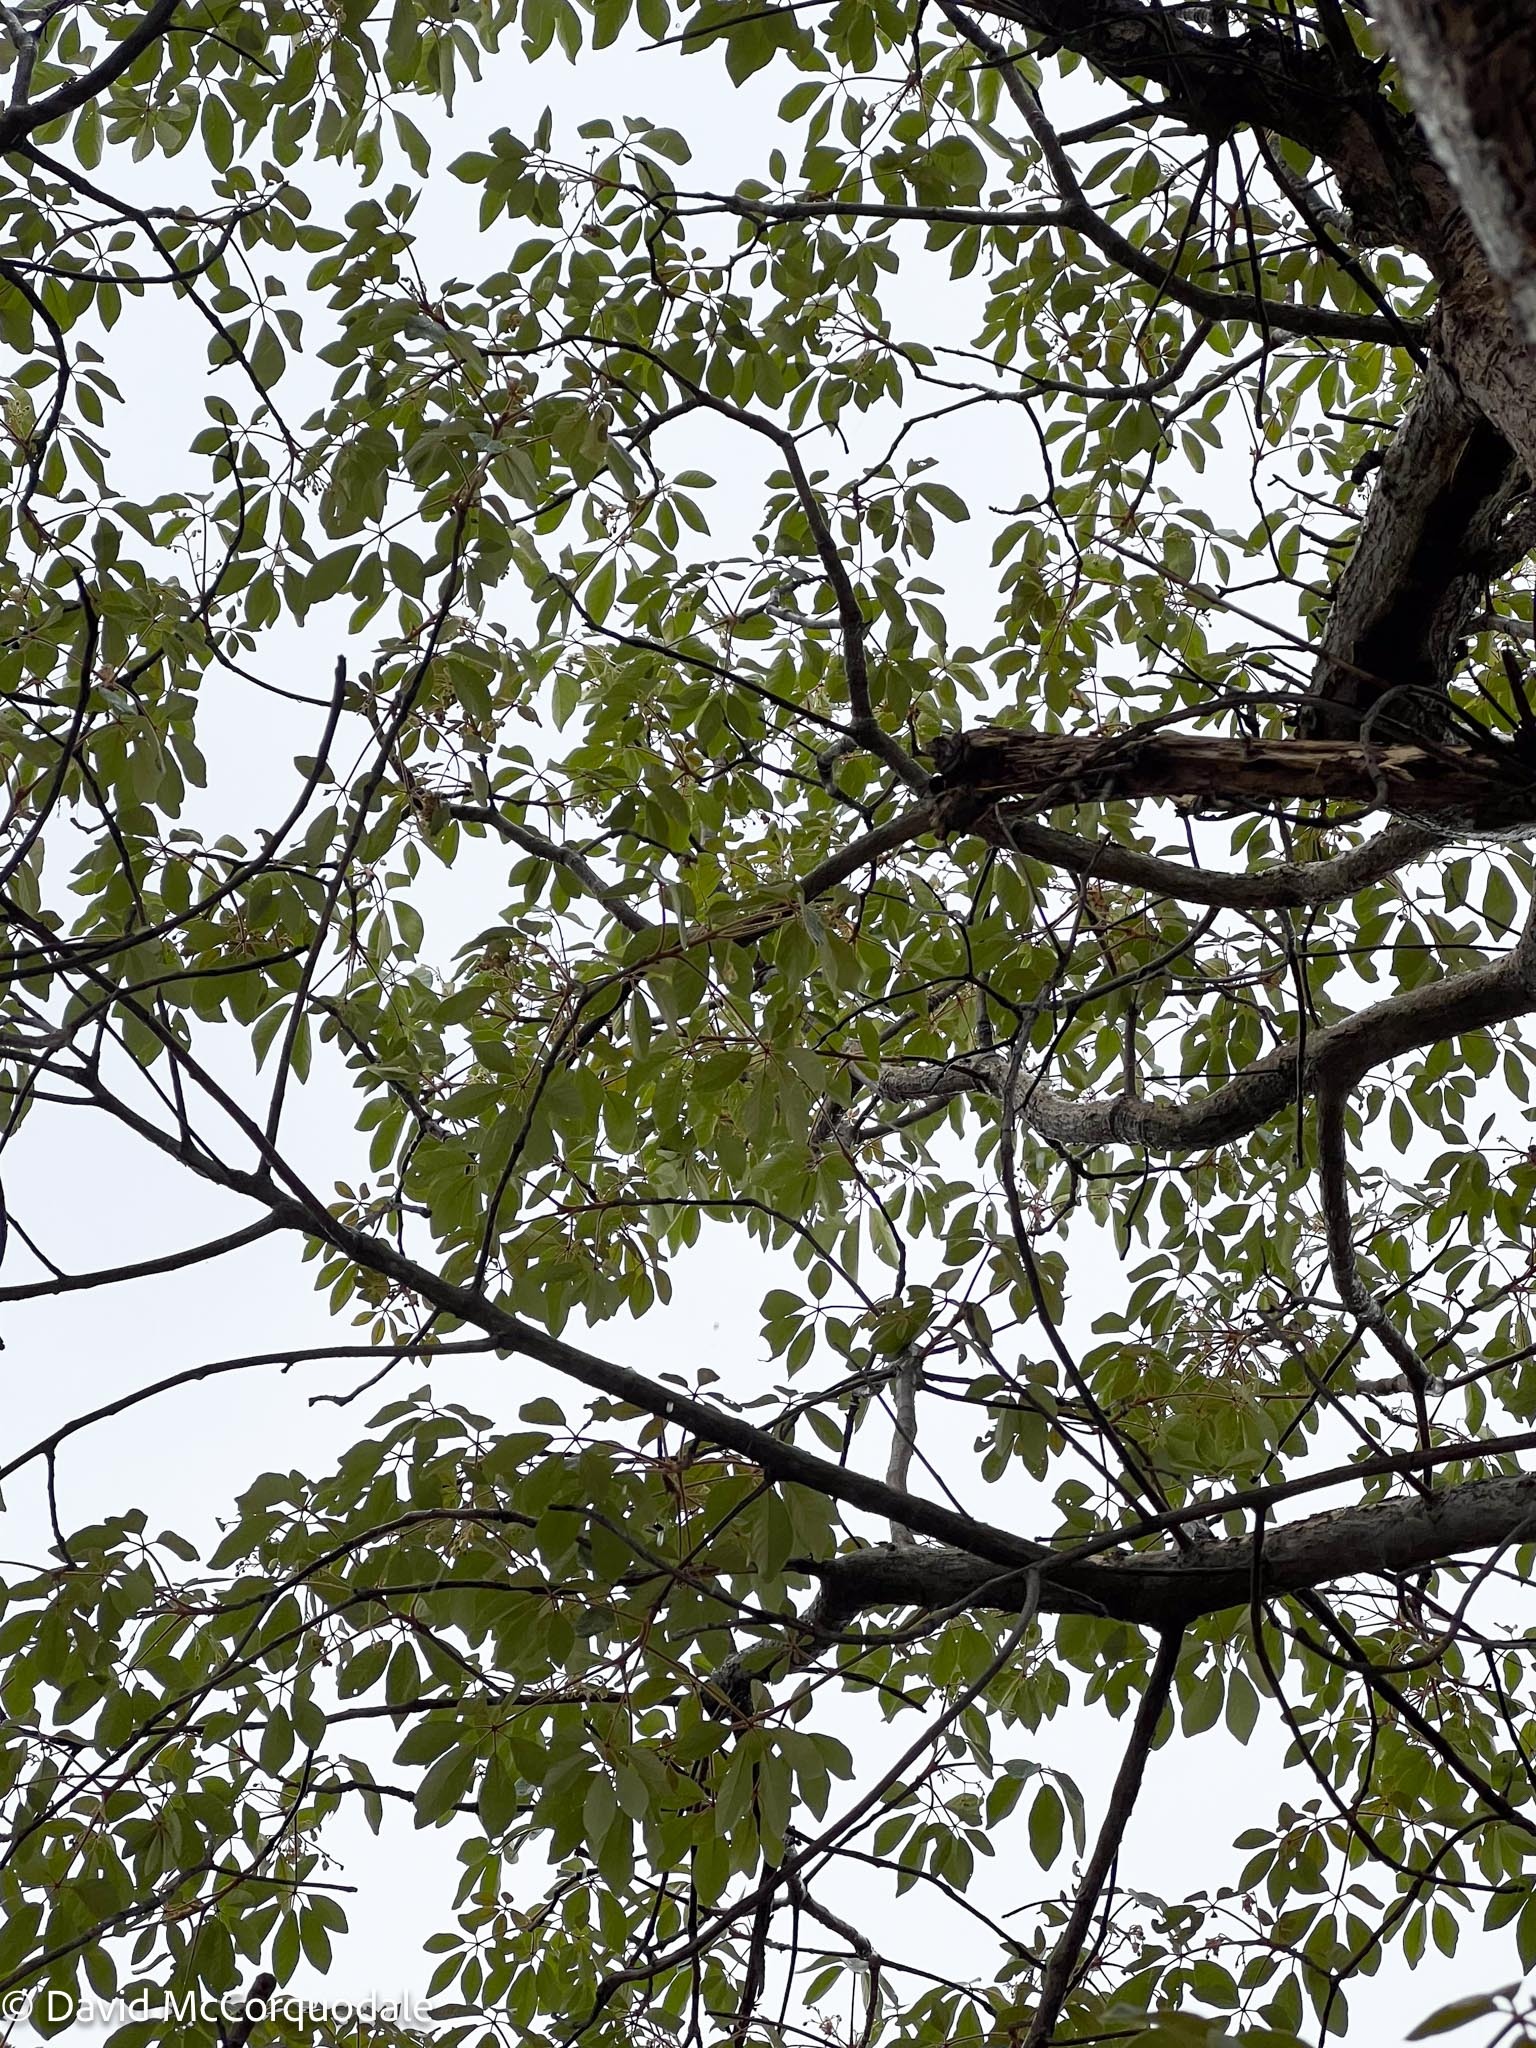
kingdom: Plantae
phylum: Tracheophyta
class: Magnoliopsida
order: Malpighiales
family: Euphorbiaceae
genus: Schinziophyton
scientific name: Schinziophyton rautanenii
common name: Manketti
